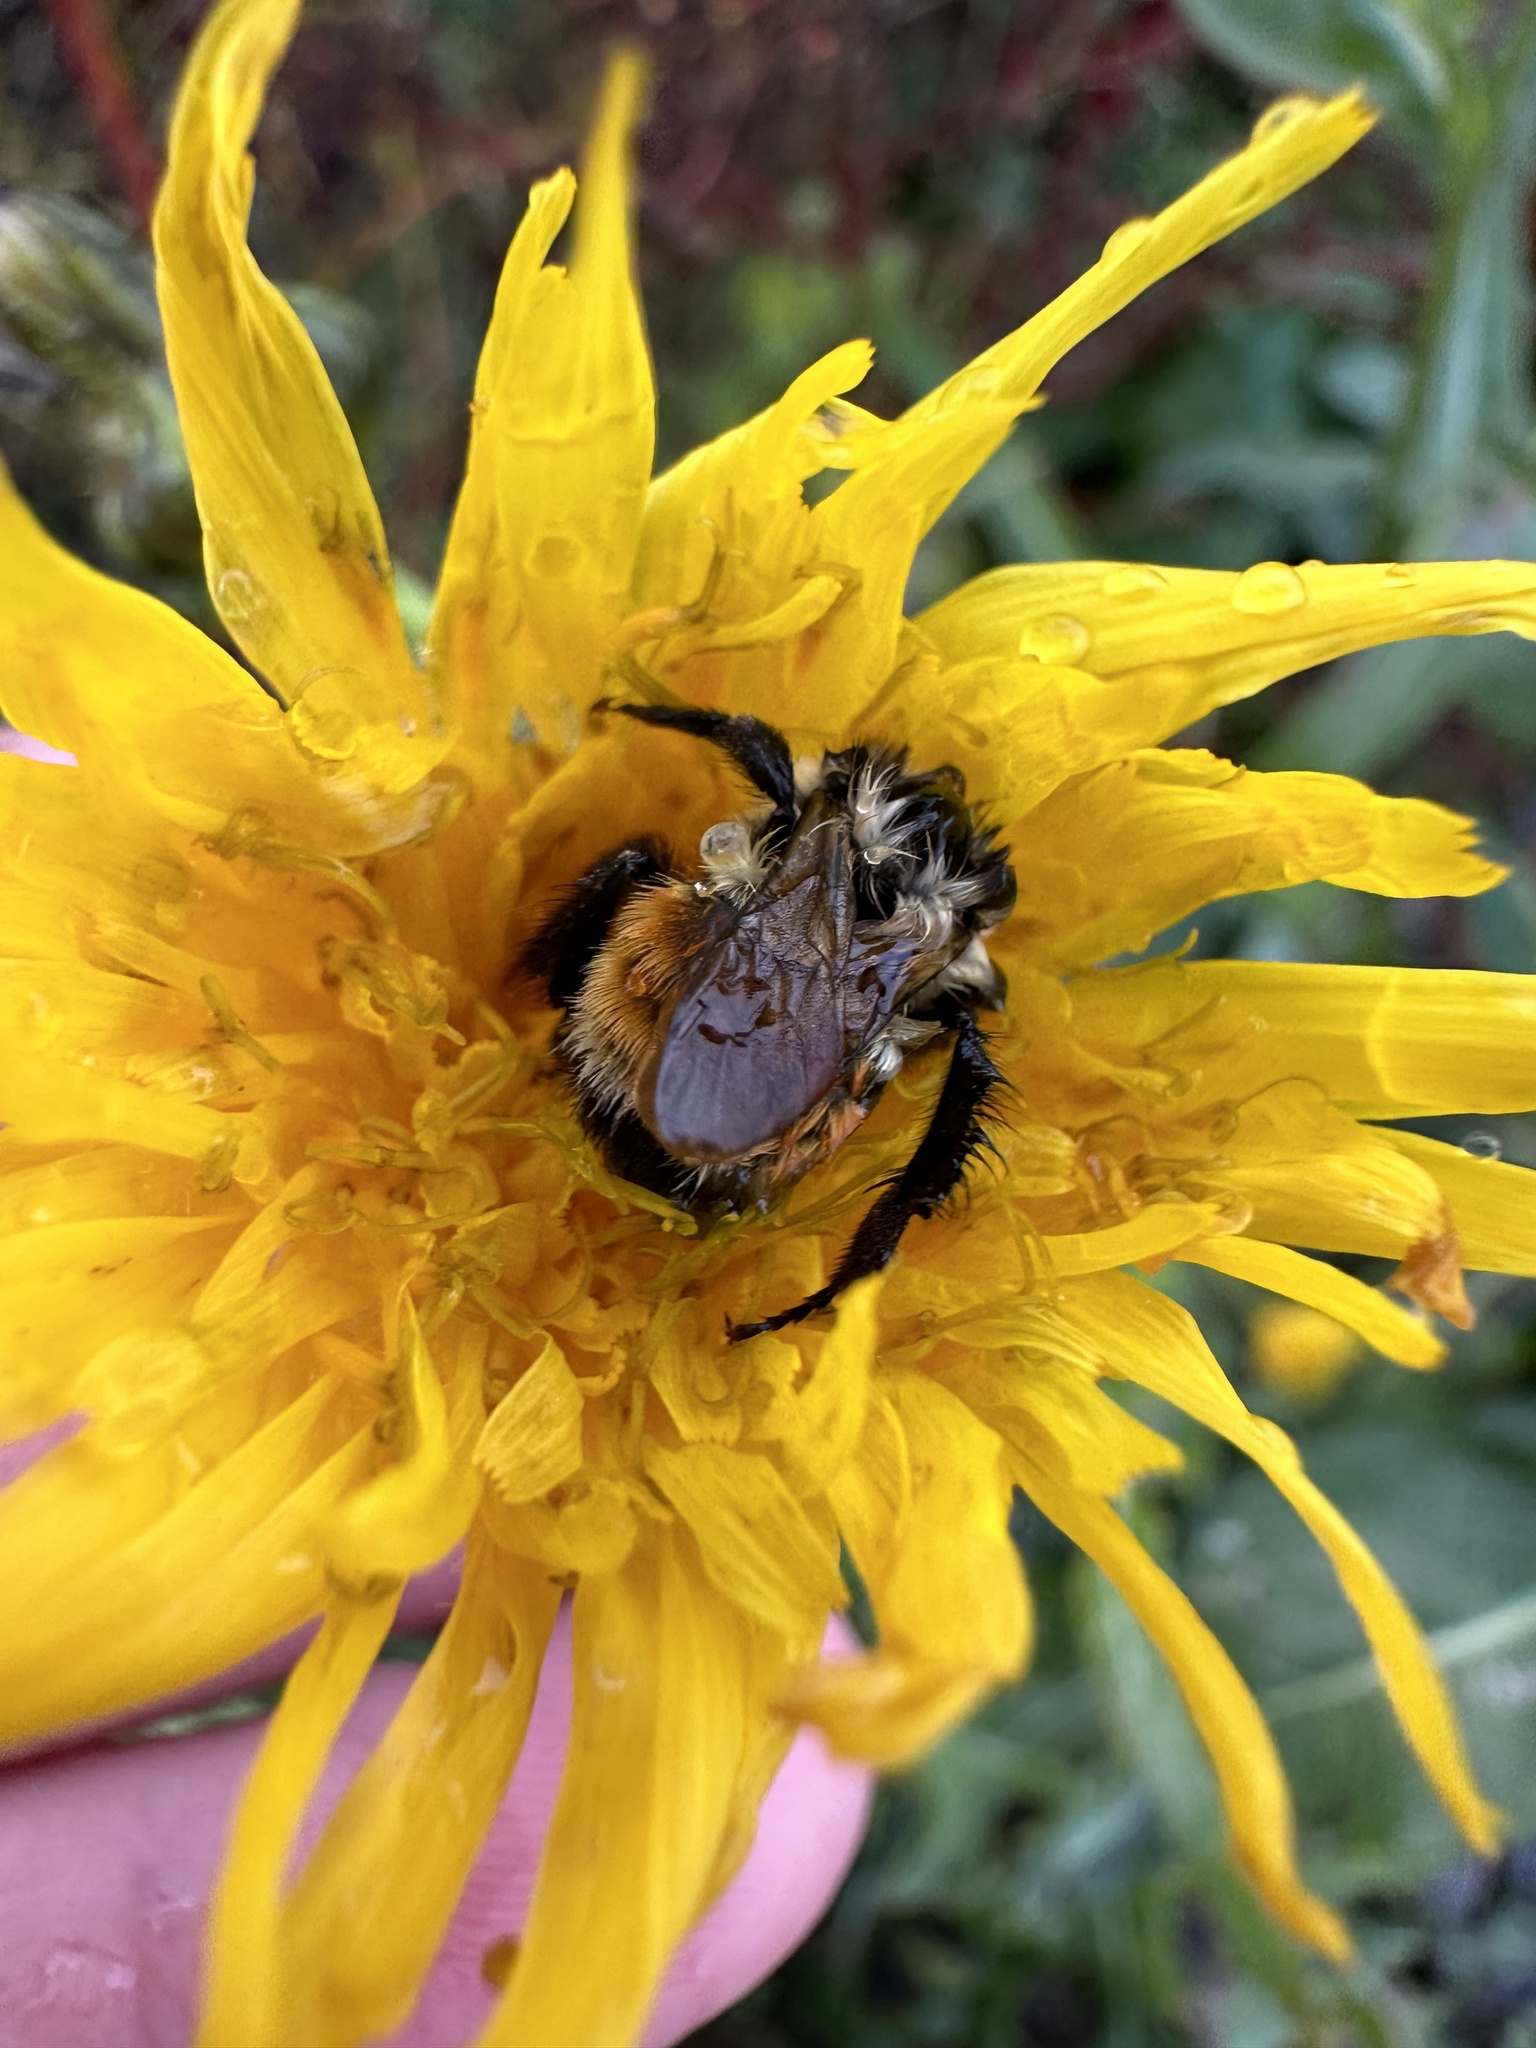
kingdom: Animalia
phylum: Arthropoda
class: Insecta
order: Hymenoptera
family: Apidae
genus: Bombus
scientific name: Bombus ternarius
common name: Tri-colored bumble bee
